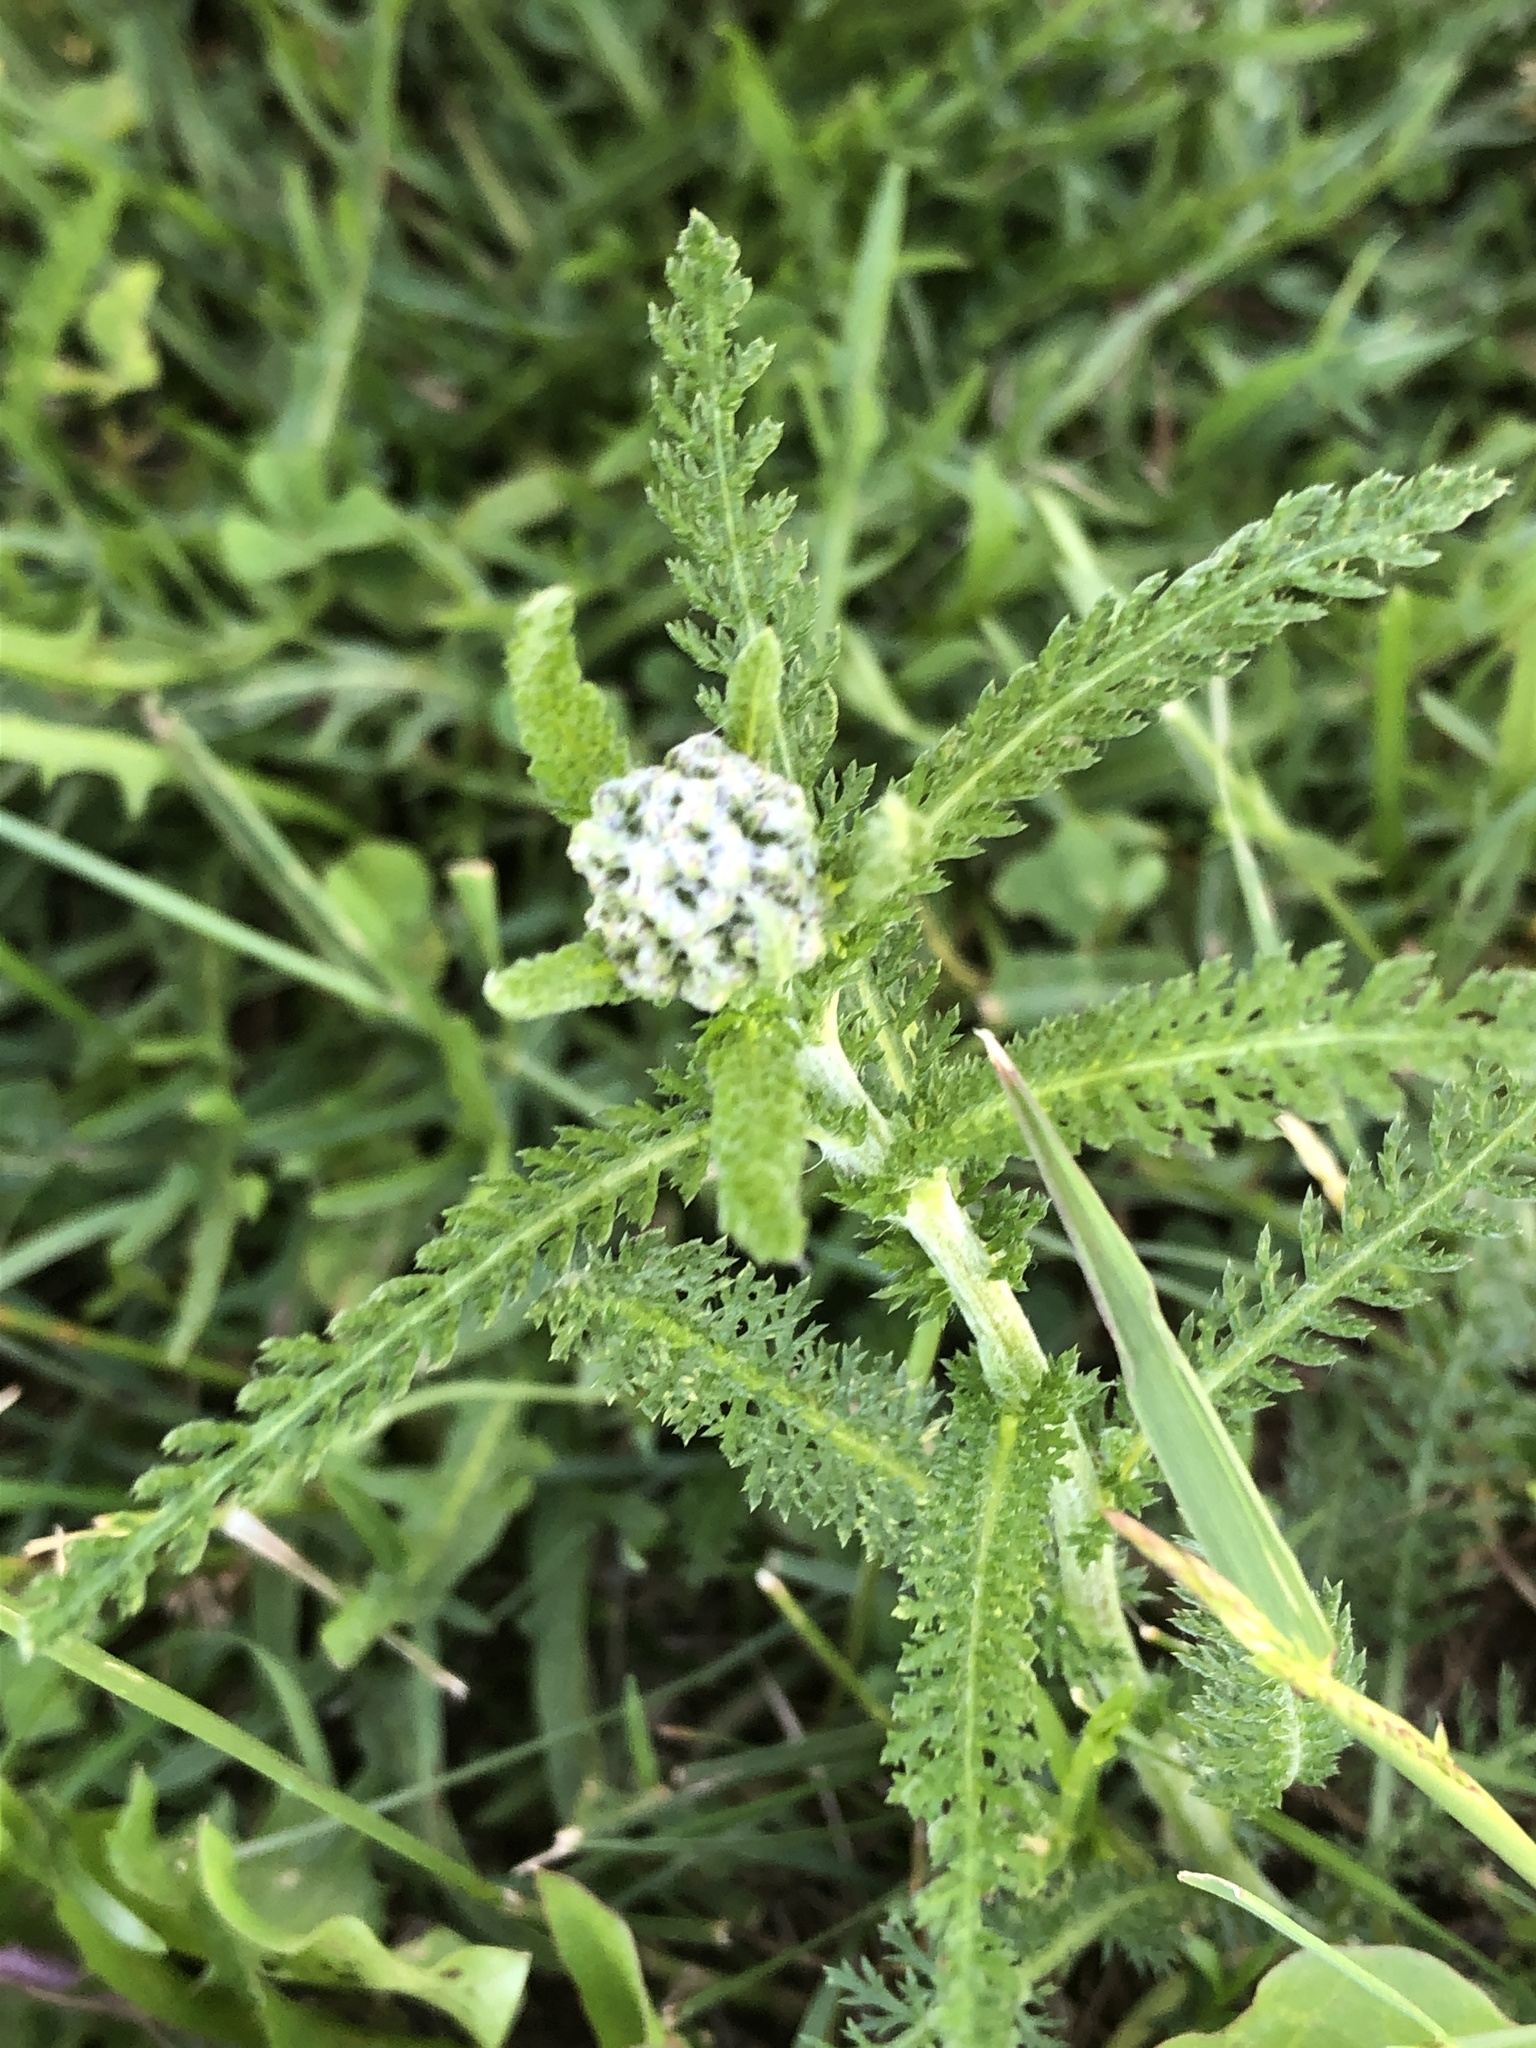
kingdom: Plantae
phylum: Tracheophyta
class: Magnoliopsida
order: Asterales
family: Asteraceae
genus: Achillea
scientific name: Achillea millefolium
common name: Yarrow
